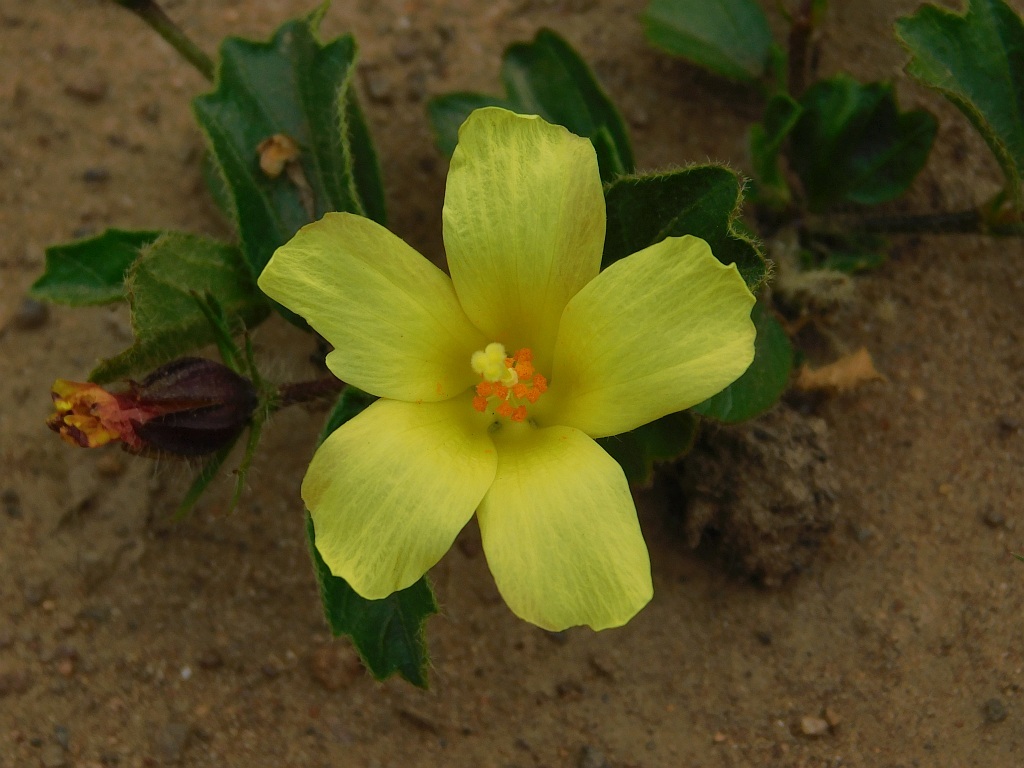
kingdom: Plantae
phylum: Tracheophyta
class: Magnoliopsida
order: Malvales
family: Malvaceae
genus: Hibiscus
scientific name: Hibiscus aethiopicus
